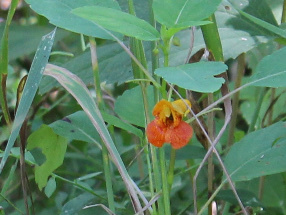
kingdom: Plantae
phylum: Tracheophyta
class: Magnoliopsida
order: Ericales
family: Balsaminaceae
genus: Impatiens
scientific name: Impatiens capensis
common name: Orange balsam
